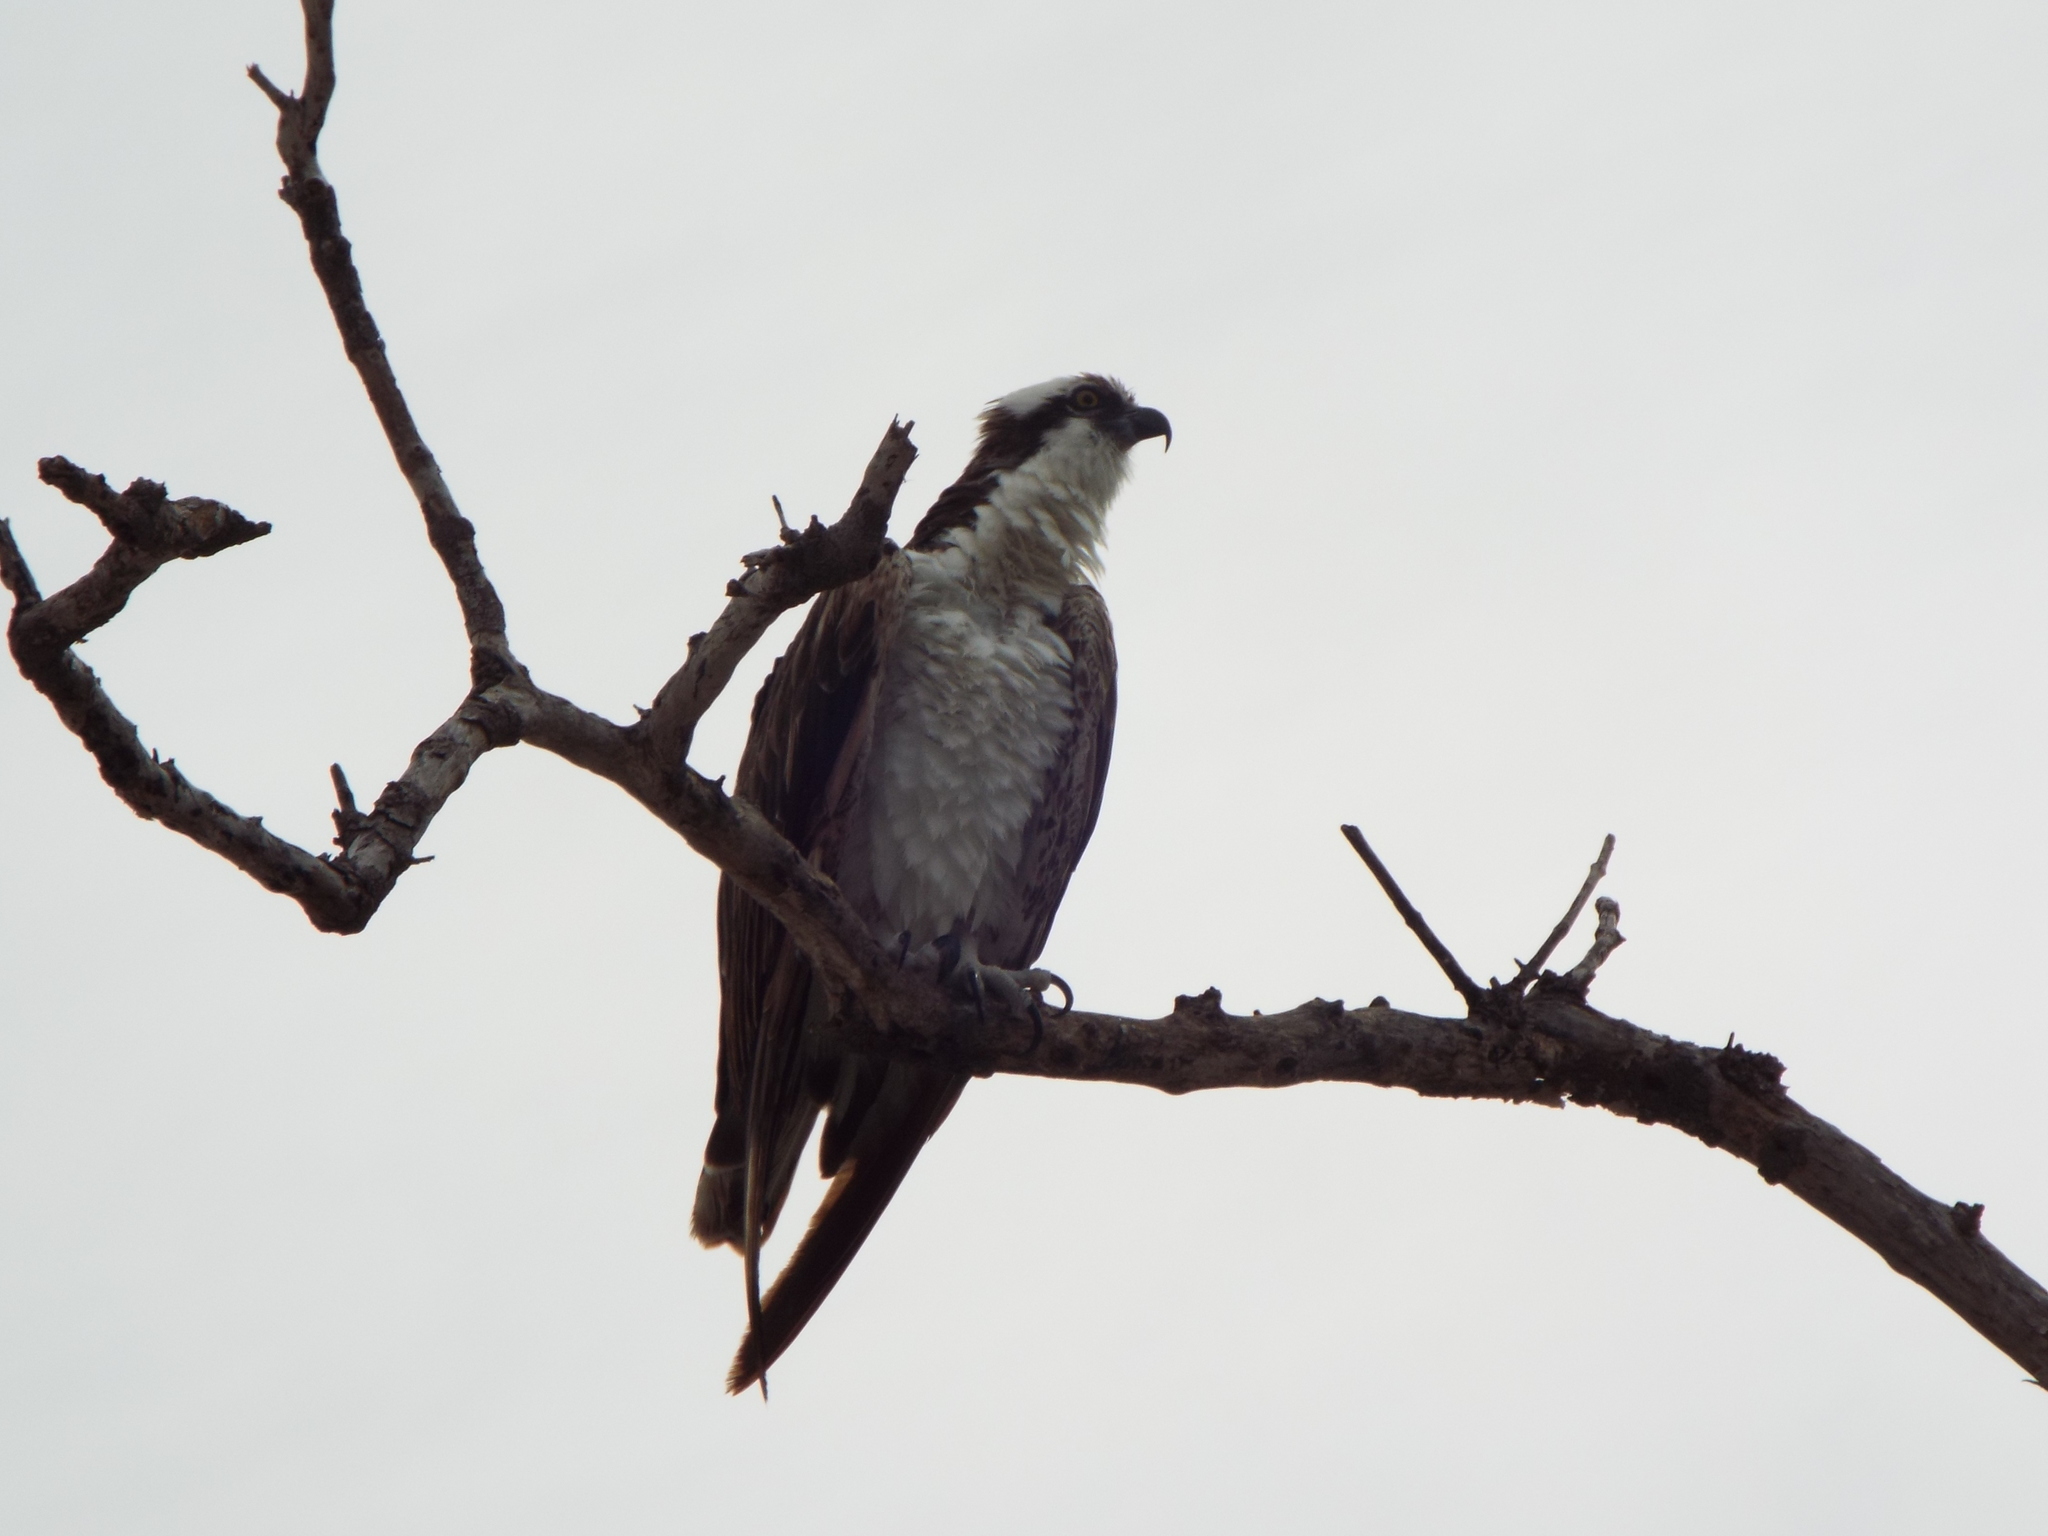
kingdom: Animalia
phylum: Chordata
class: Aves
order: Accipitriformes
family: Pandionidae
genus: Pandion
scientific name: Pandion haliaetus
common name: Osprey
